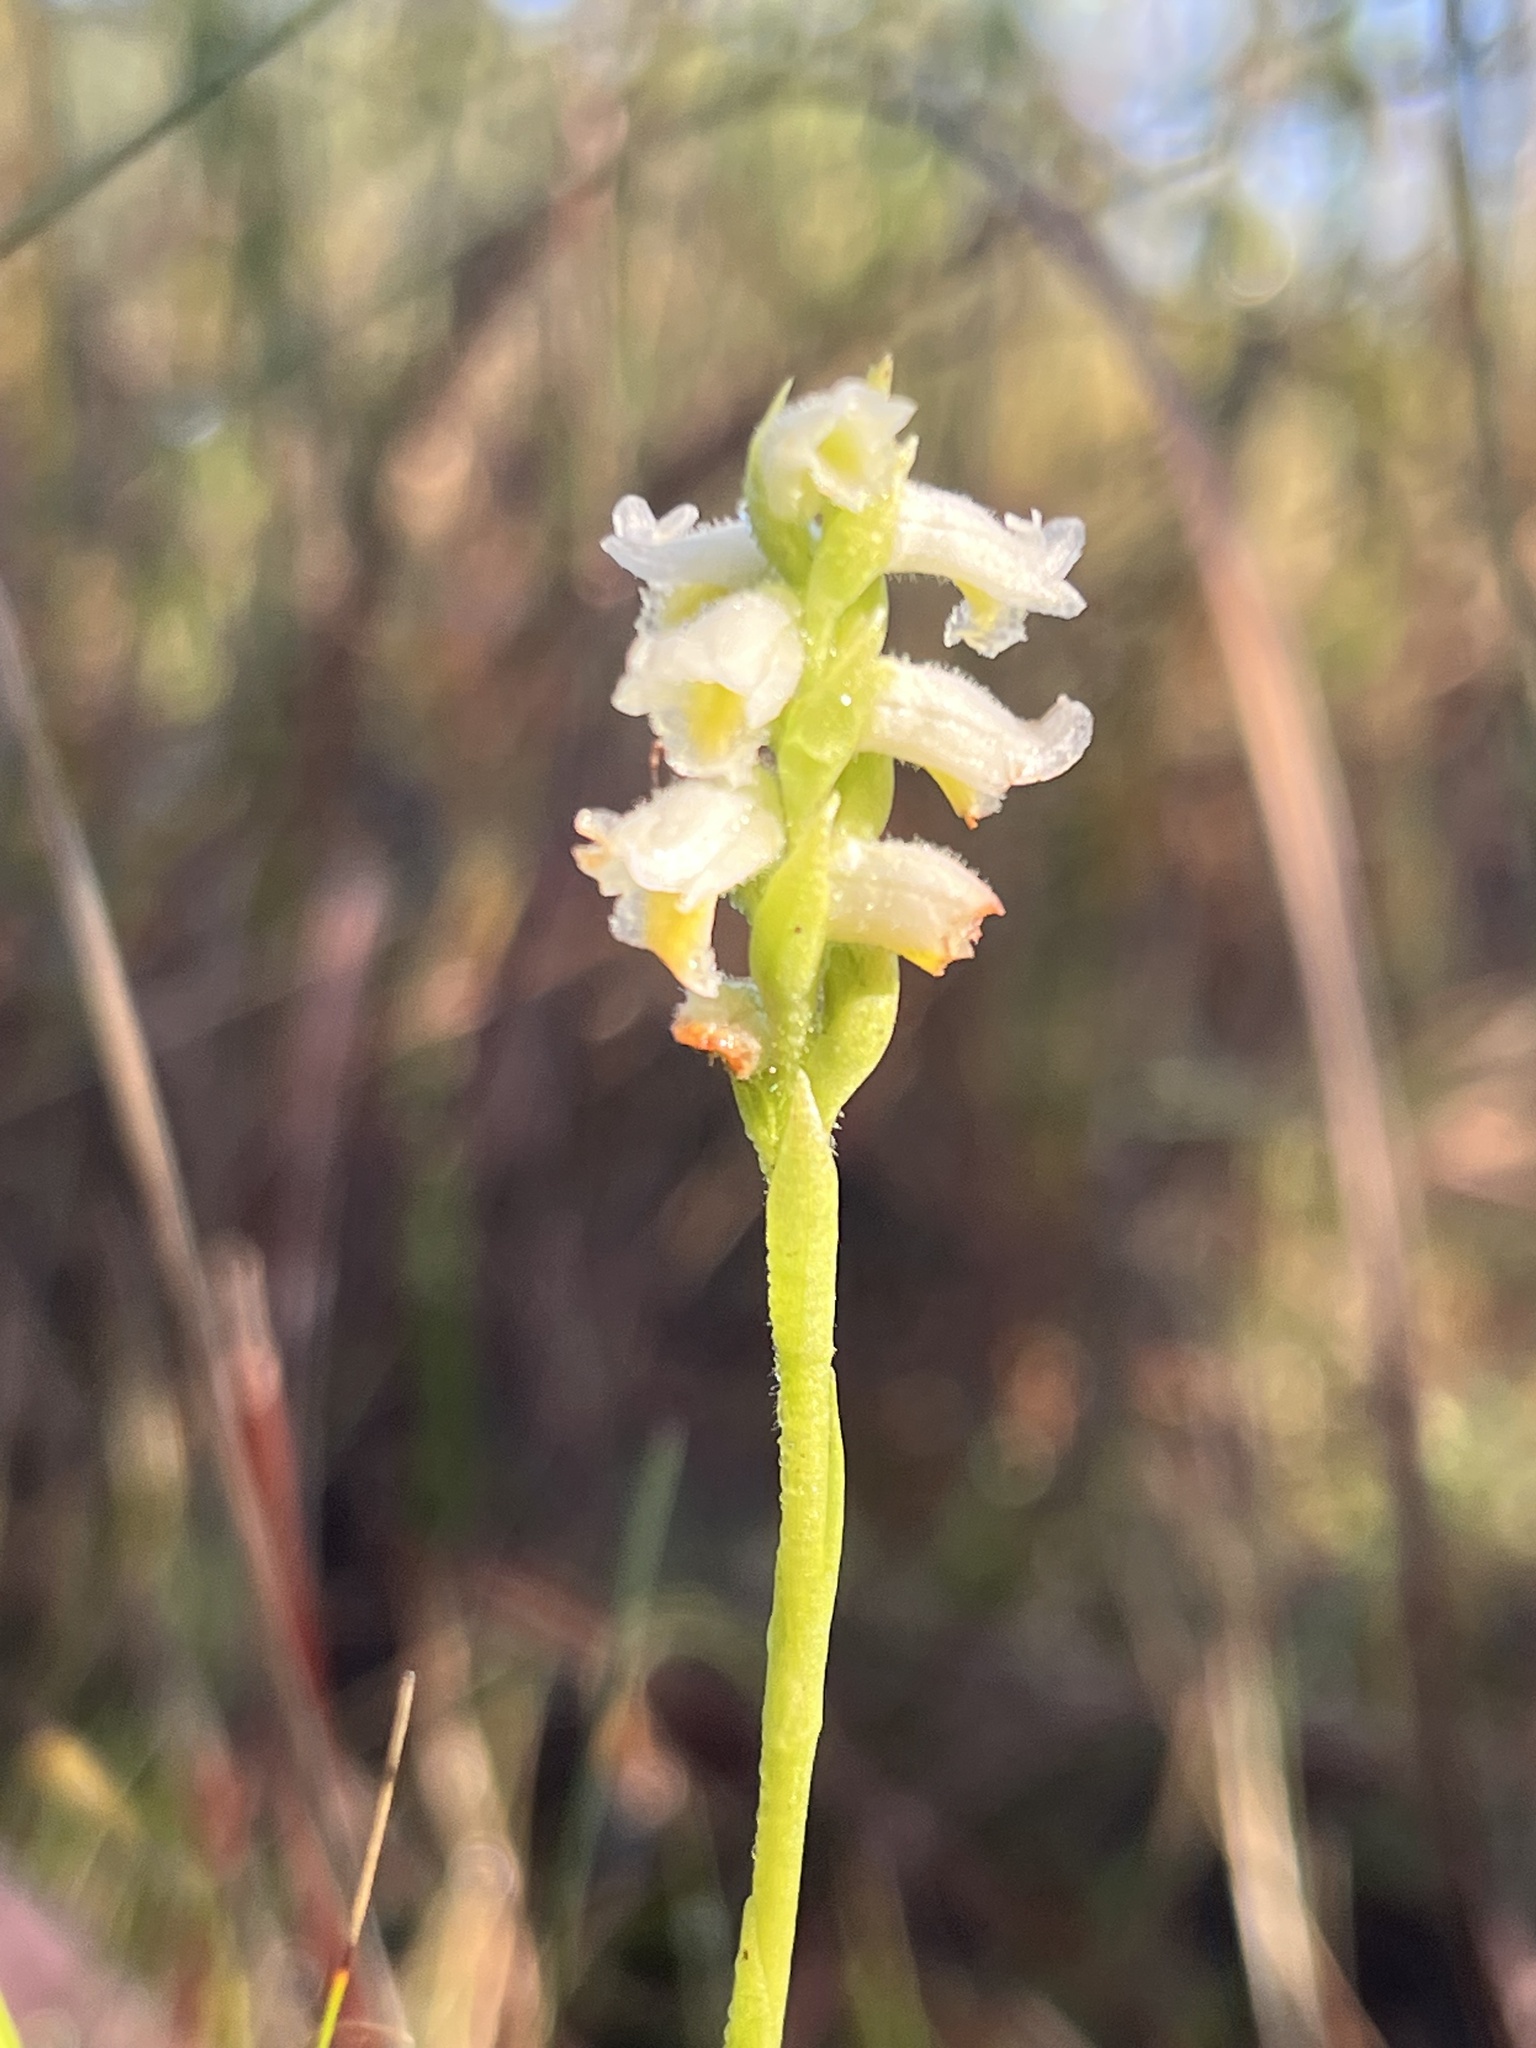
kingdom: Plantae
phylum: Tracheophyta
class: Liliopsida
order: Asparagales
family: Orchidaceae
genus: Spiranthes
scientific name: Spiranthes triloba
